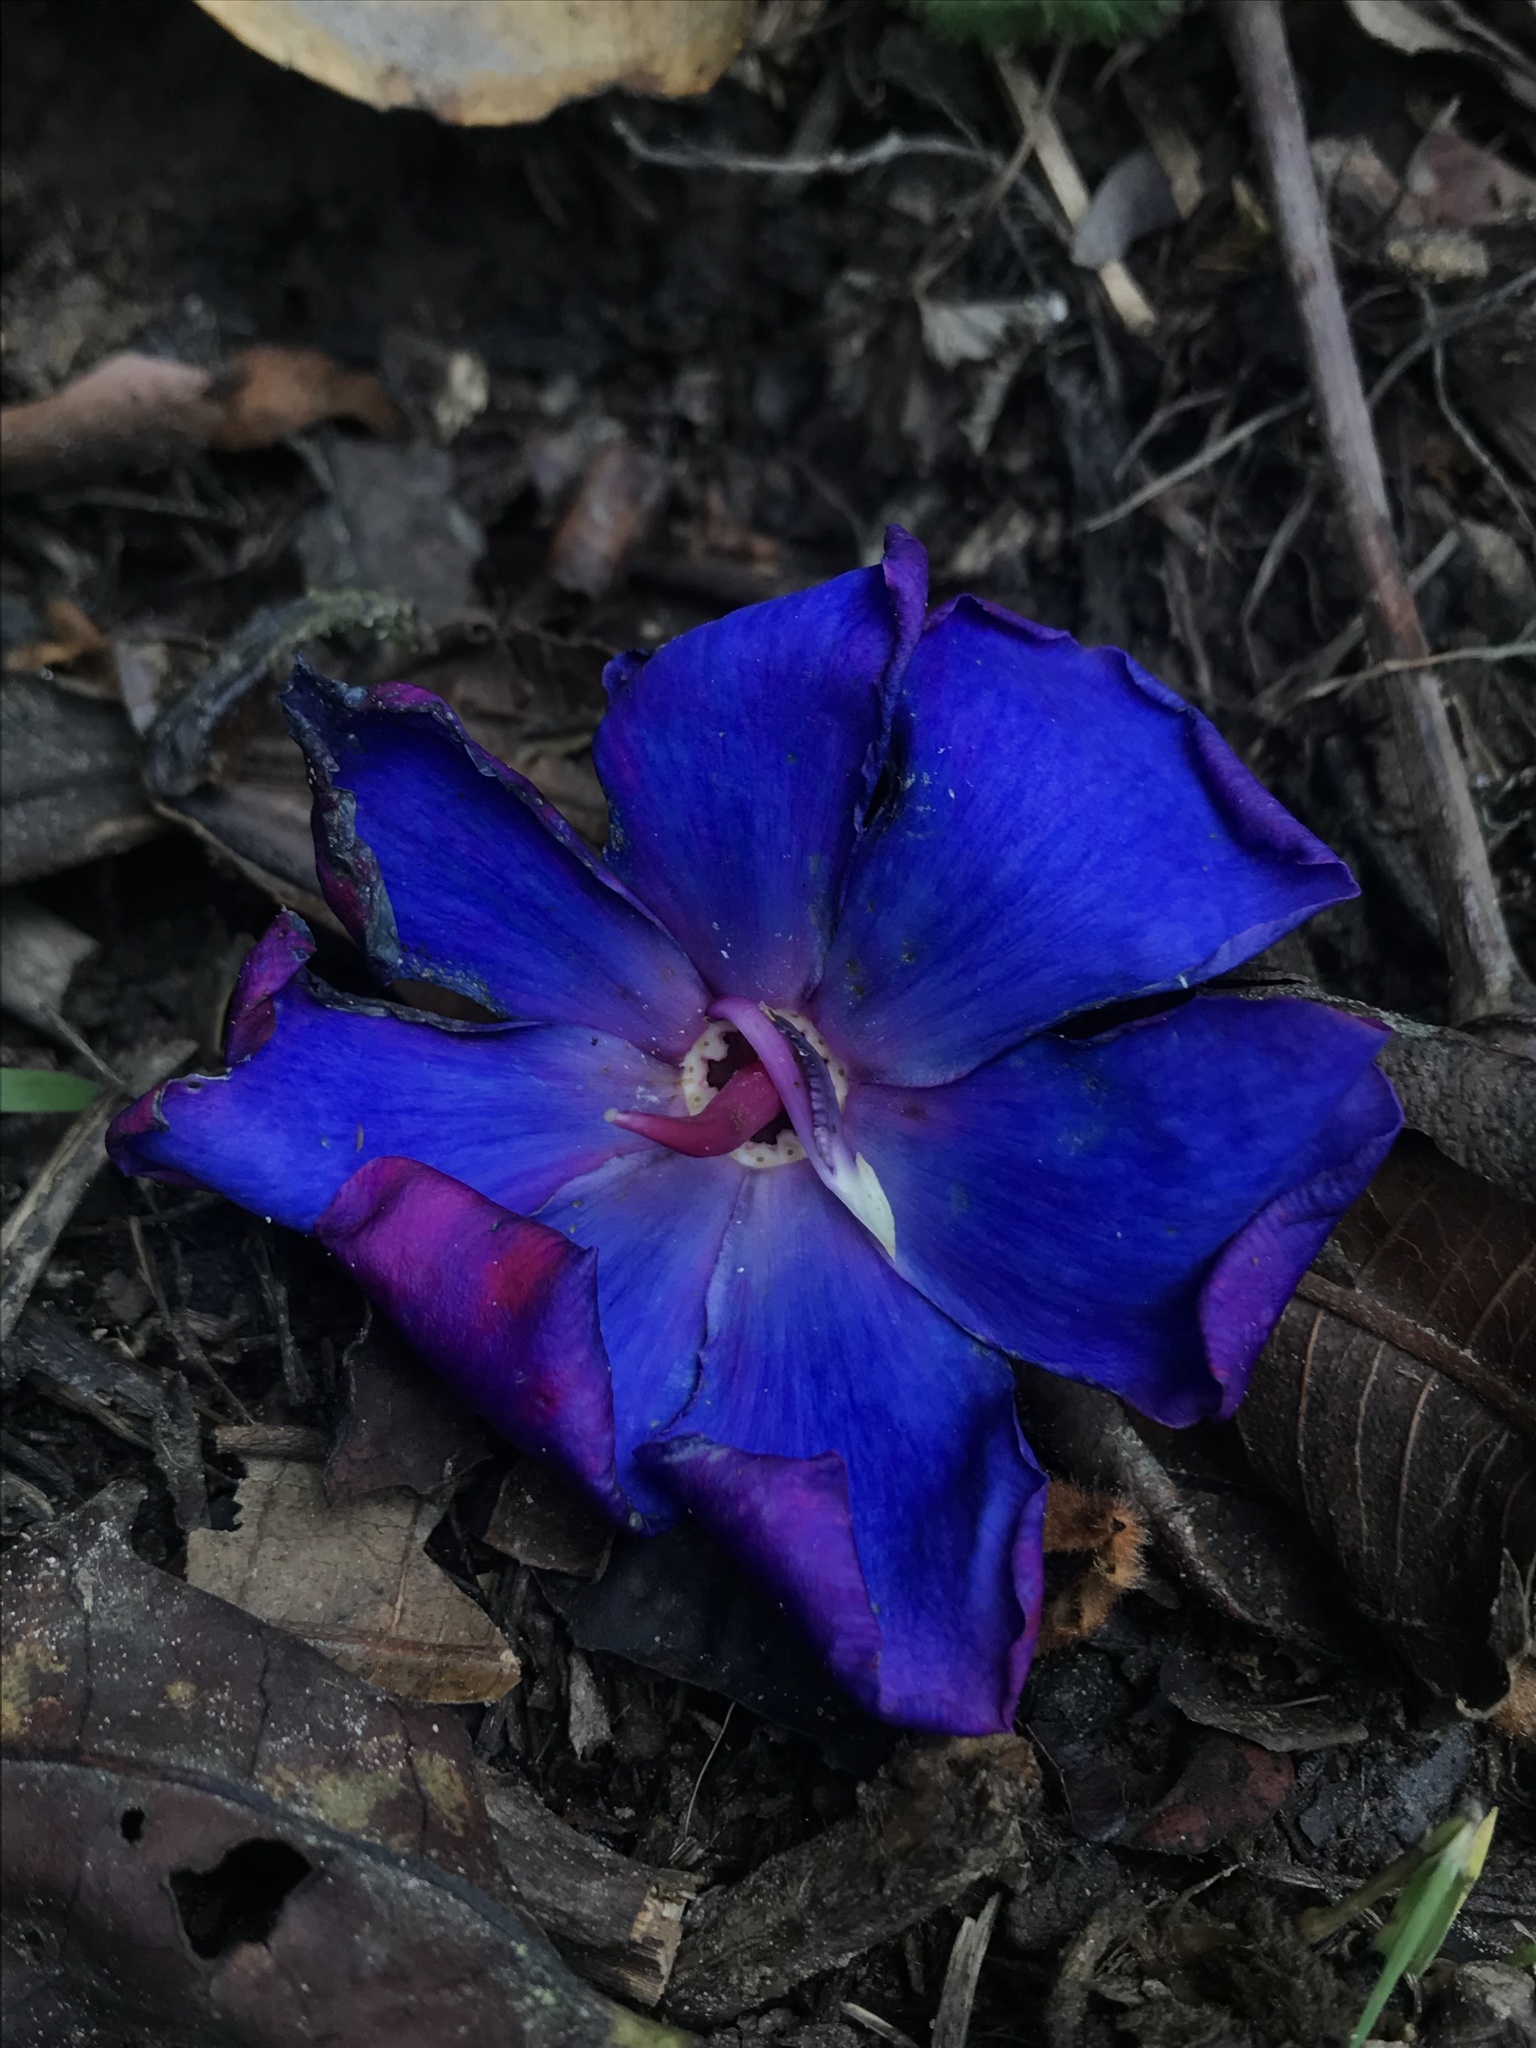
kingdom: Plantae
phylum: Tracheophyta
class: Magnoliopsida
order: Myrtales
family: Melastomataceae
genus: Meriania
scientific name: Meriania brachycera
